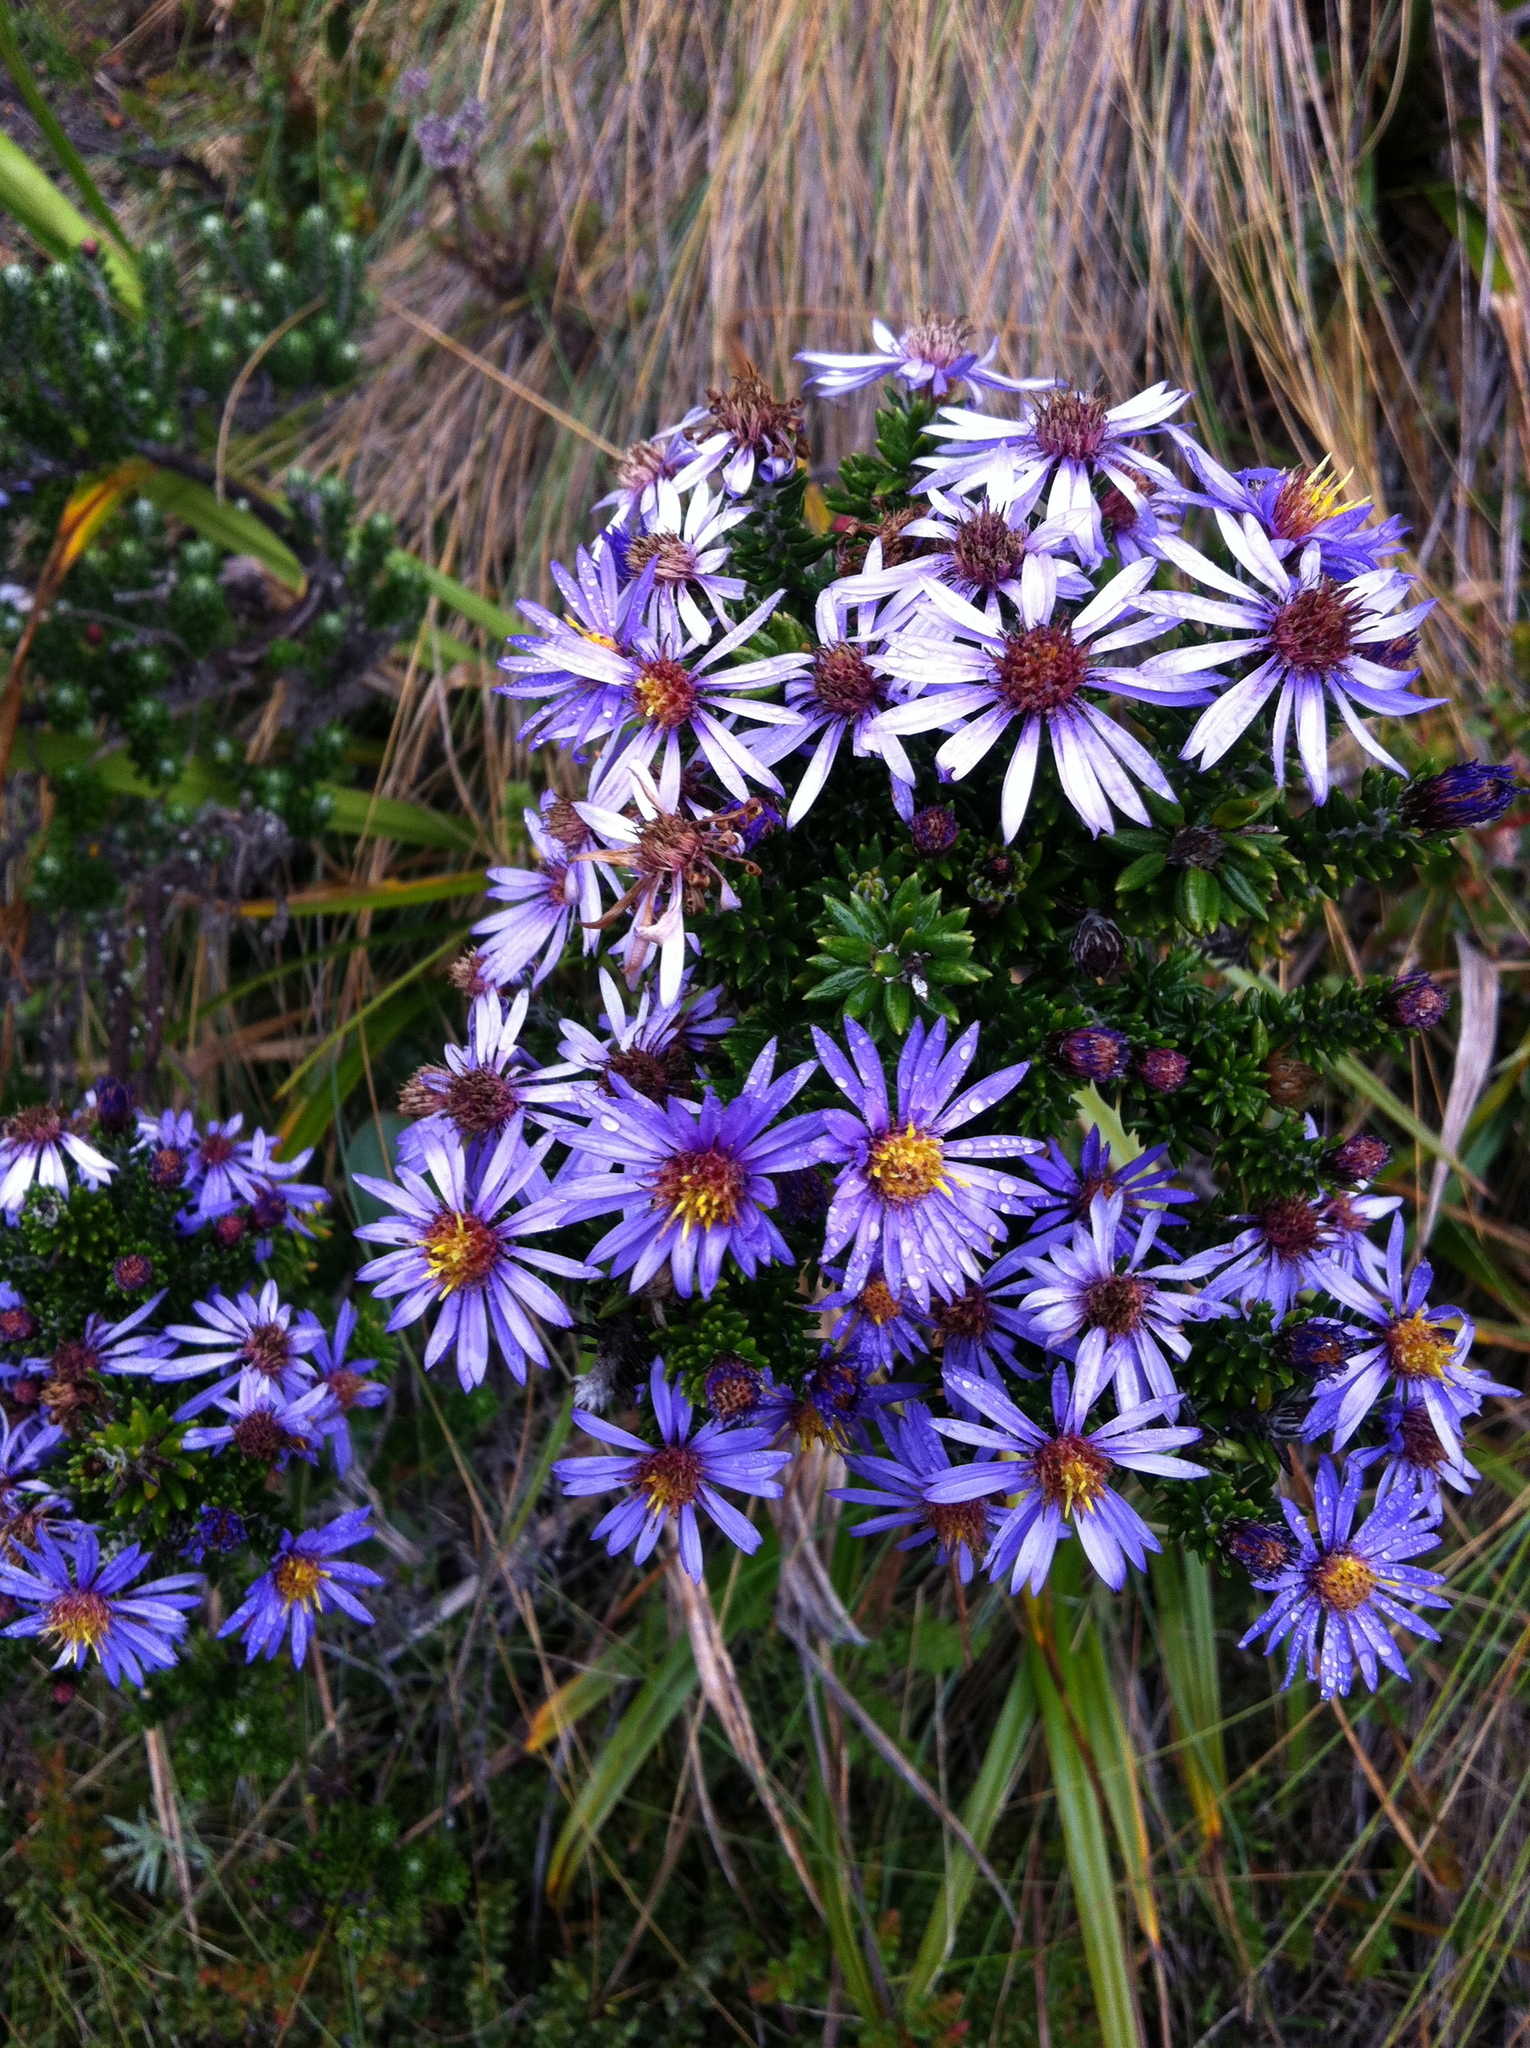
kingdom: Plantae
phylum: Tracheophyta
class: Magnoliopsida
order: Asterales
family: Asteraceae
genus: Diplostephium
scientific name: Diplostephium hartwegii
